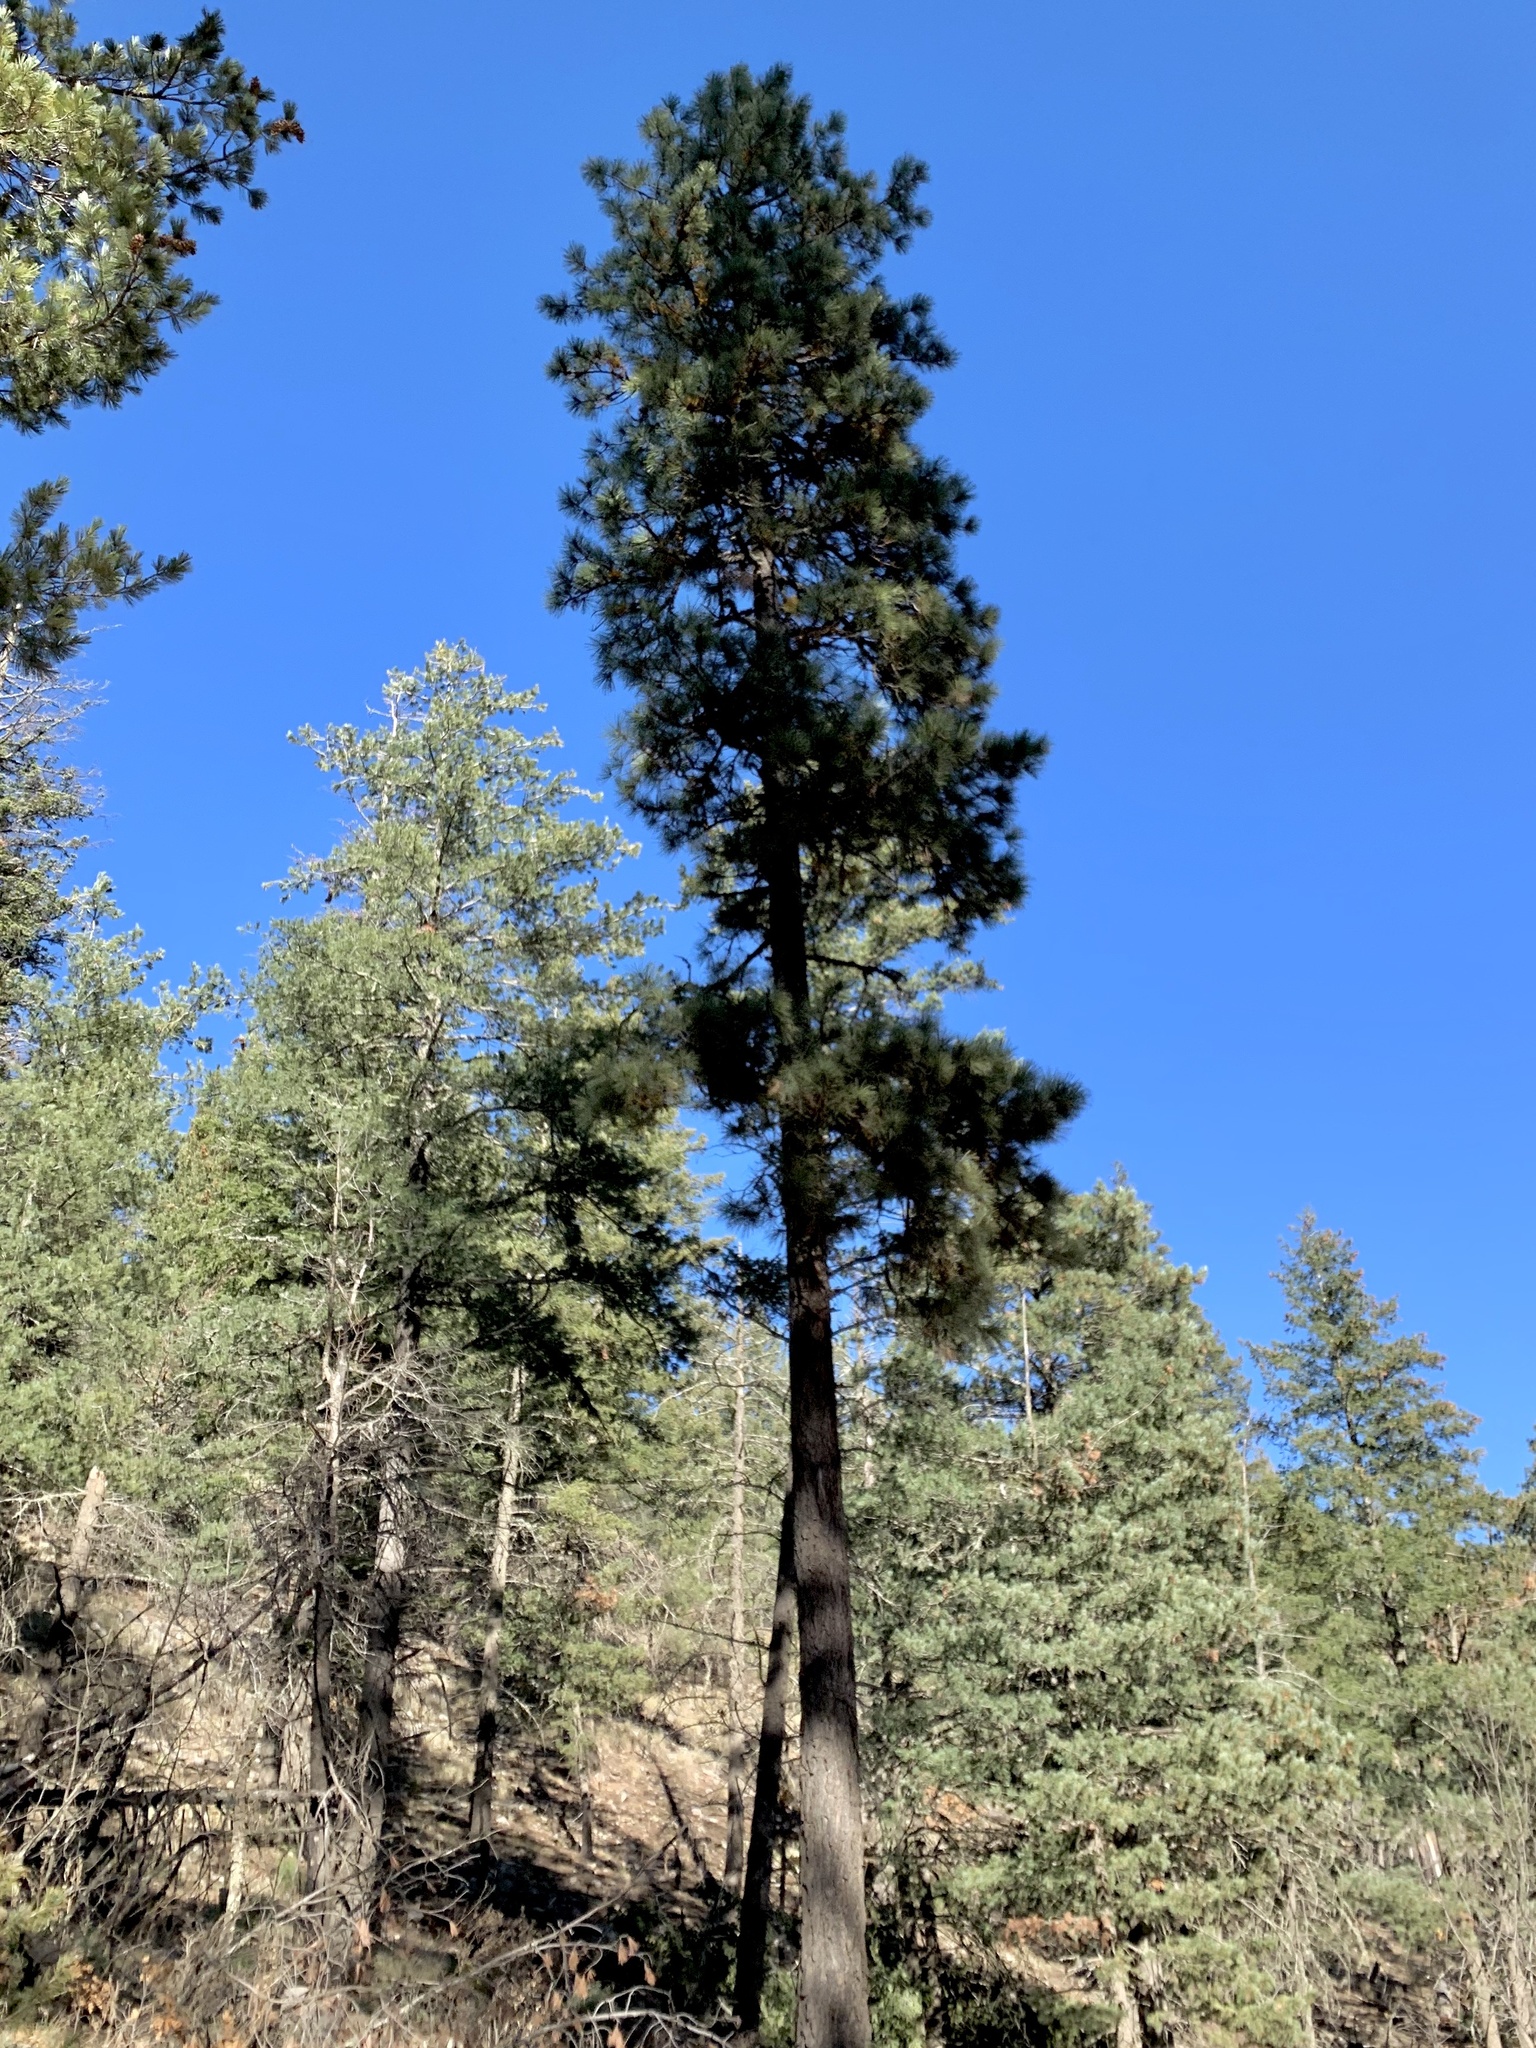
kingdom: Plantae
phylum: Tracheophyta
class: Pinopsida
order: Pinales
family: Pinaceae
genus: Pinus
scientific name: Pinus ponderosa
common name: Western yellow-pine
